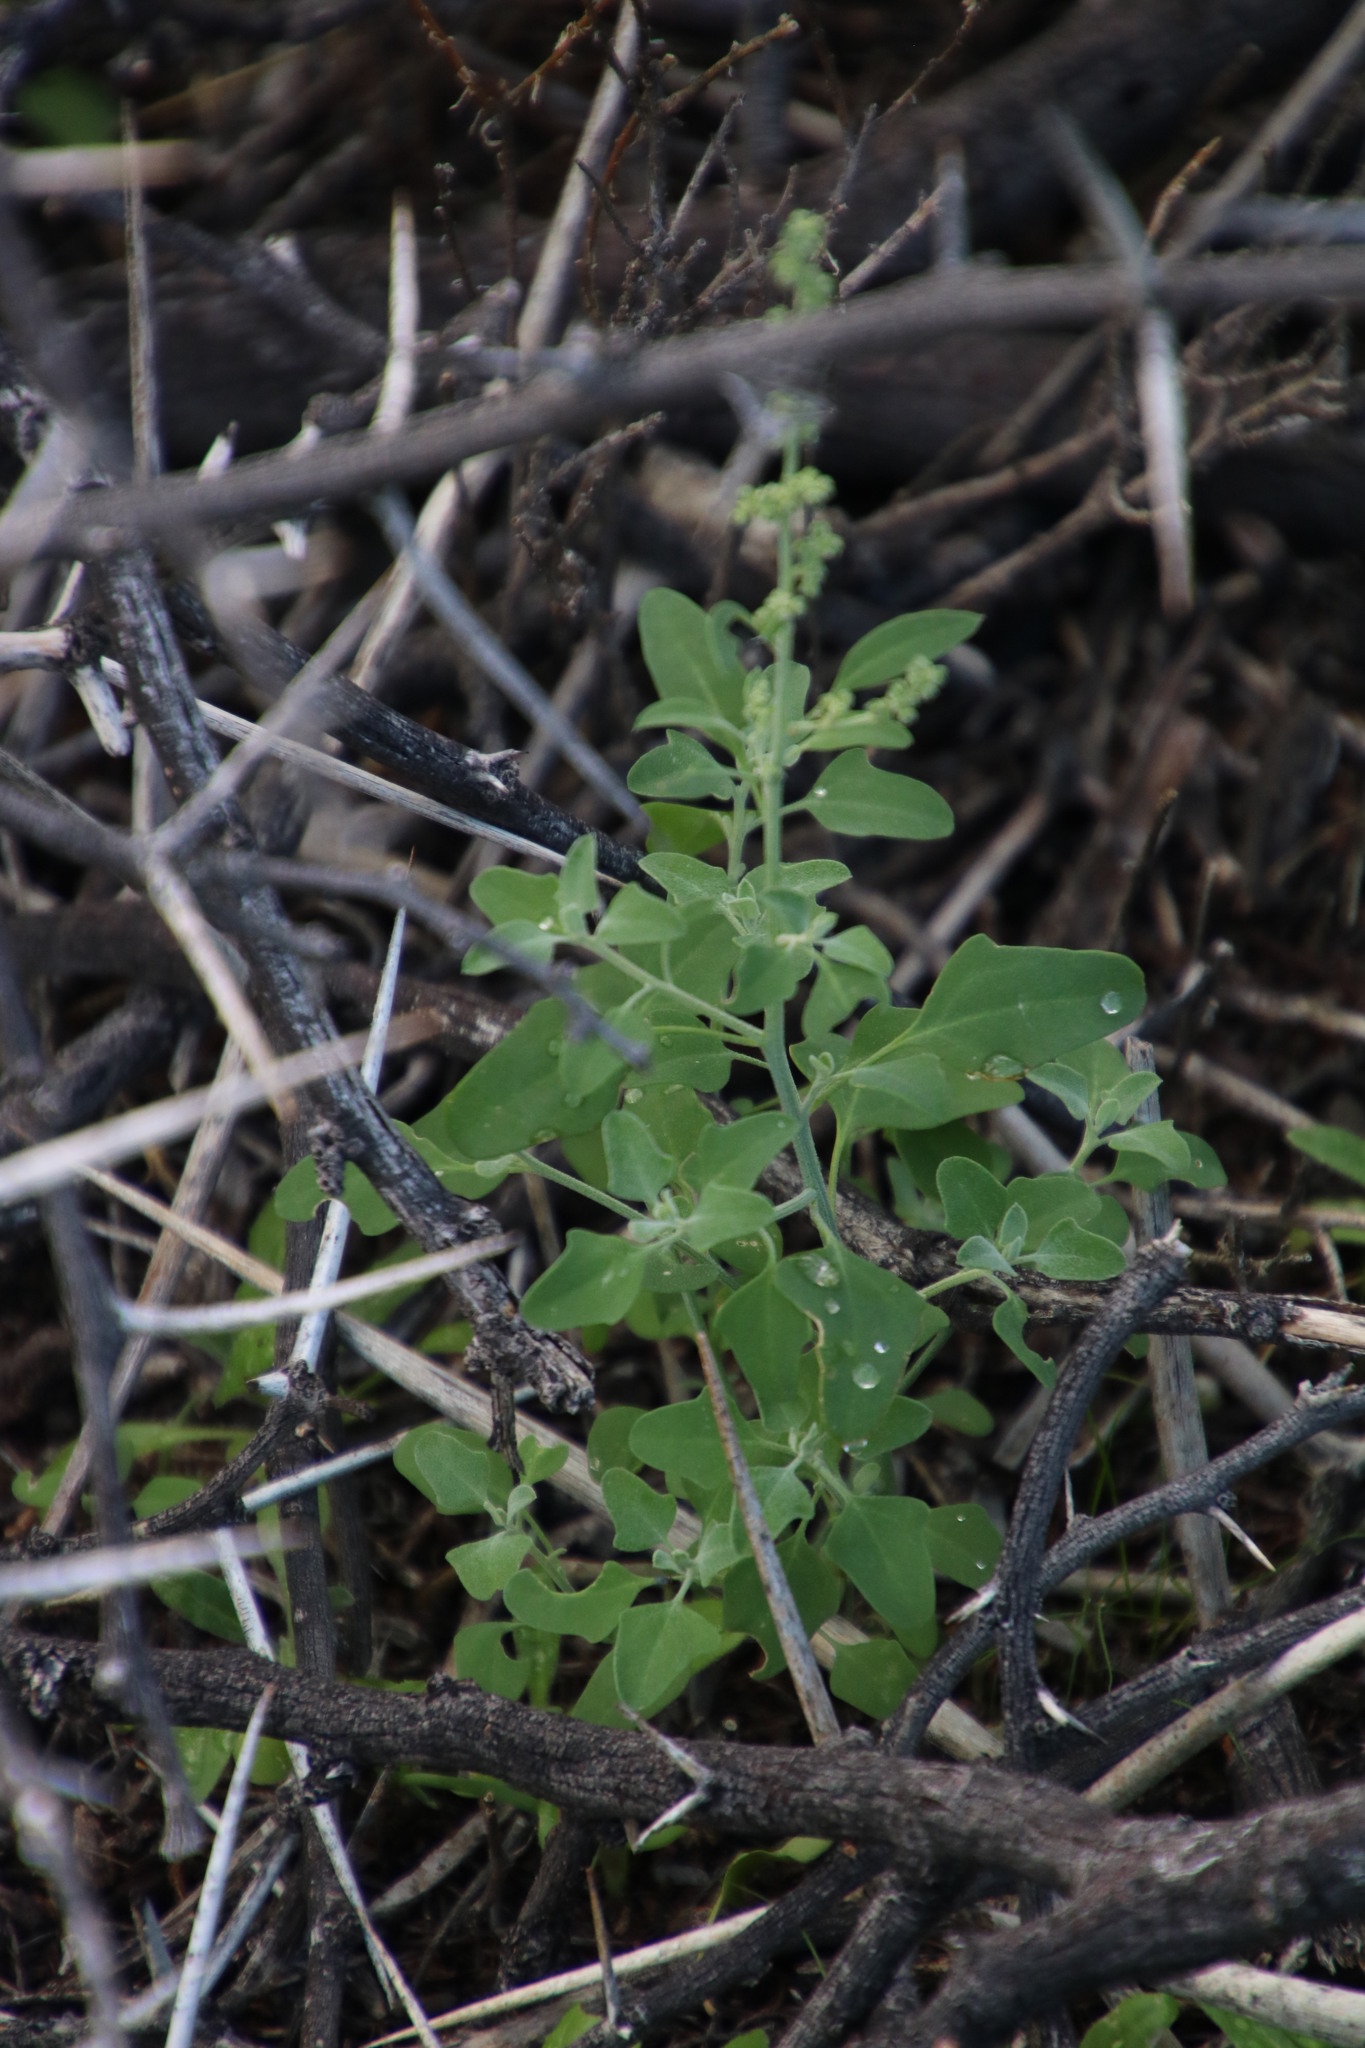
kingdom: Plantae
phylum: Tracheophyta
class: Magnoliopsida
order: Caryophyllales
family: Amaranthaceae
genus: Chenopodium
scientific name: Chenopodium phillipsianum
